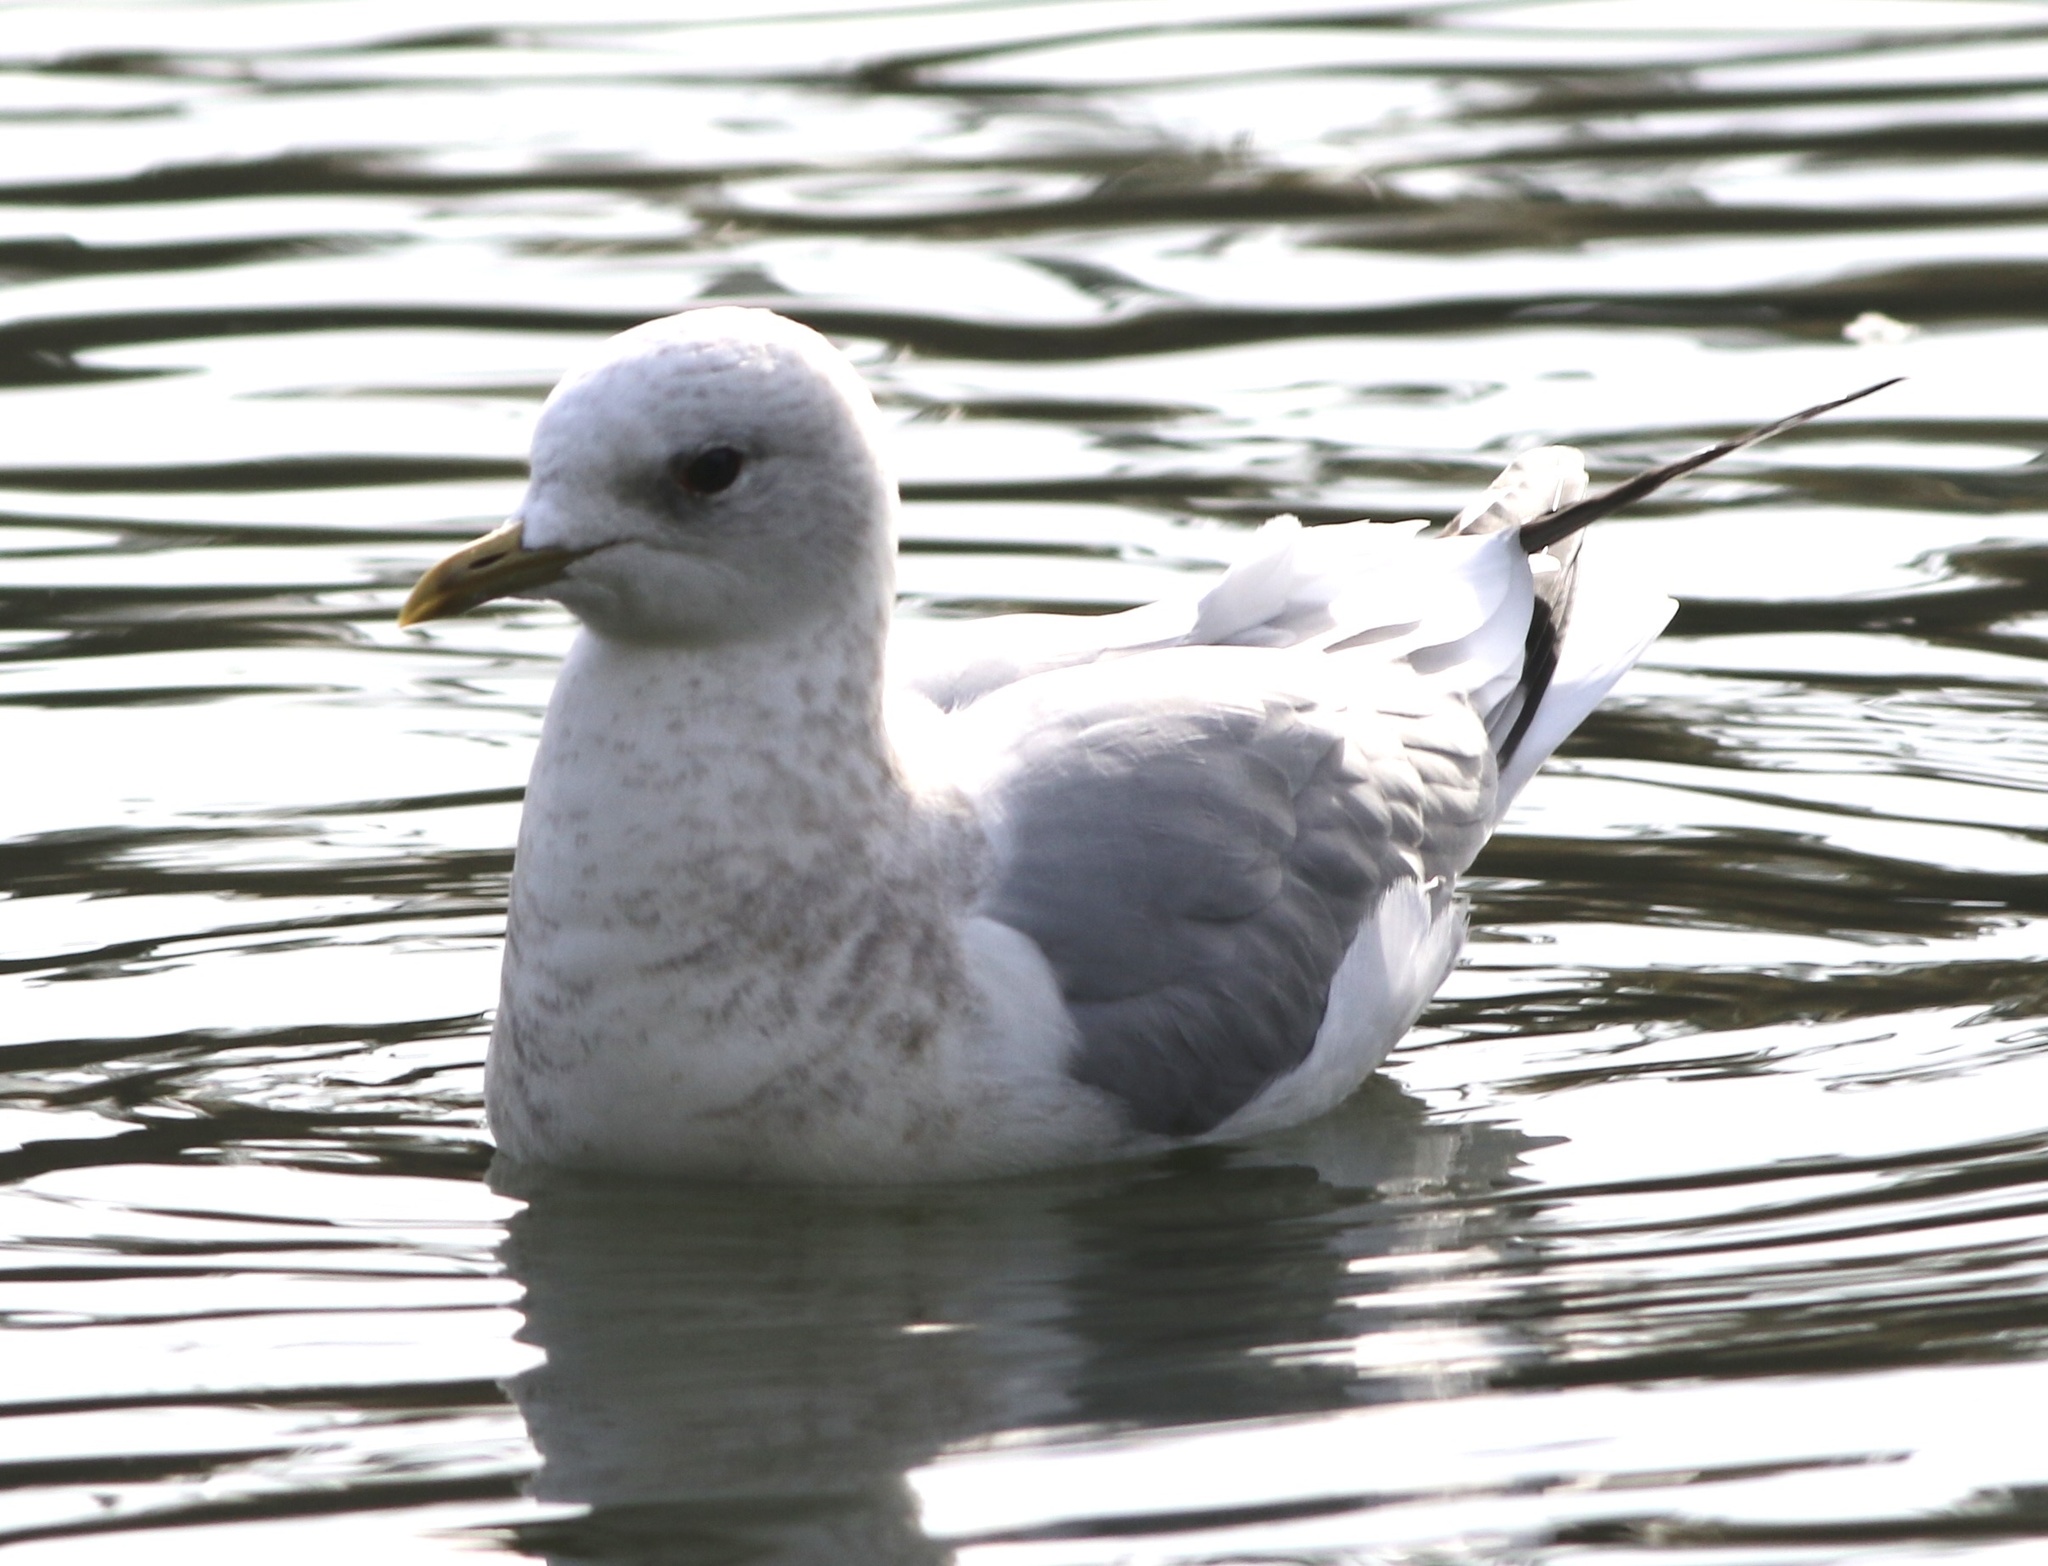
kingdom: Animalia
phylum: Chordata
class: Aves
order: Charadriiformes
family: Laridae
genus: Larus
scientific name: Larus brachyrhynchus
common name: Short-billed gull
